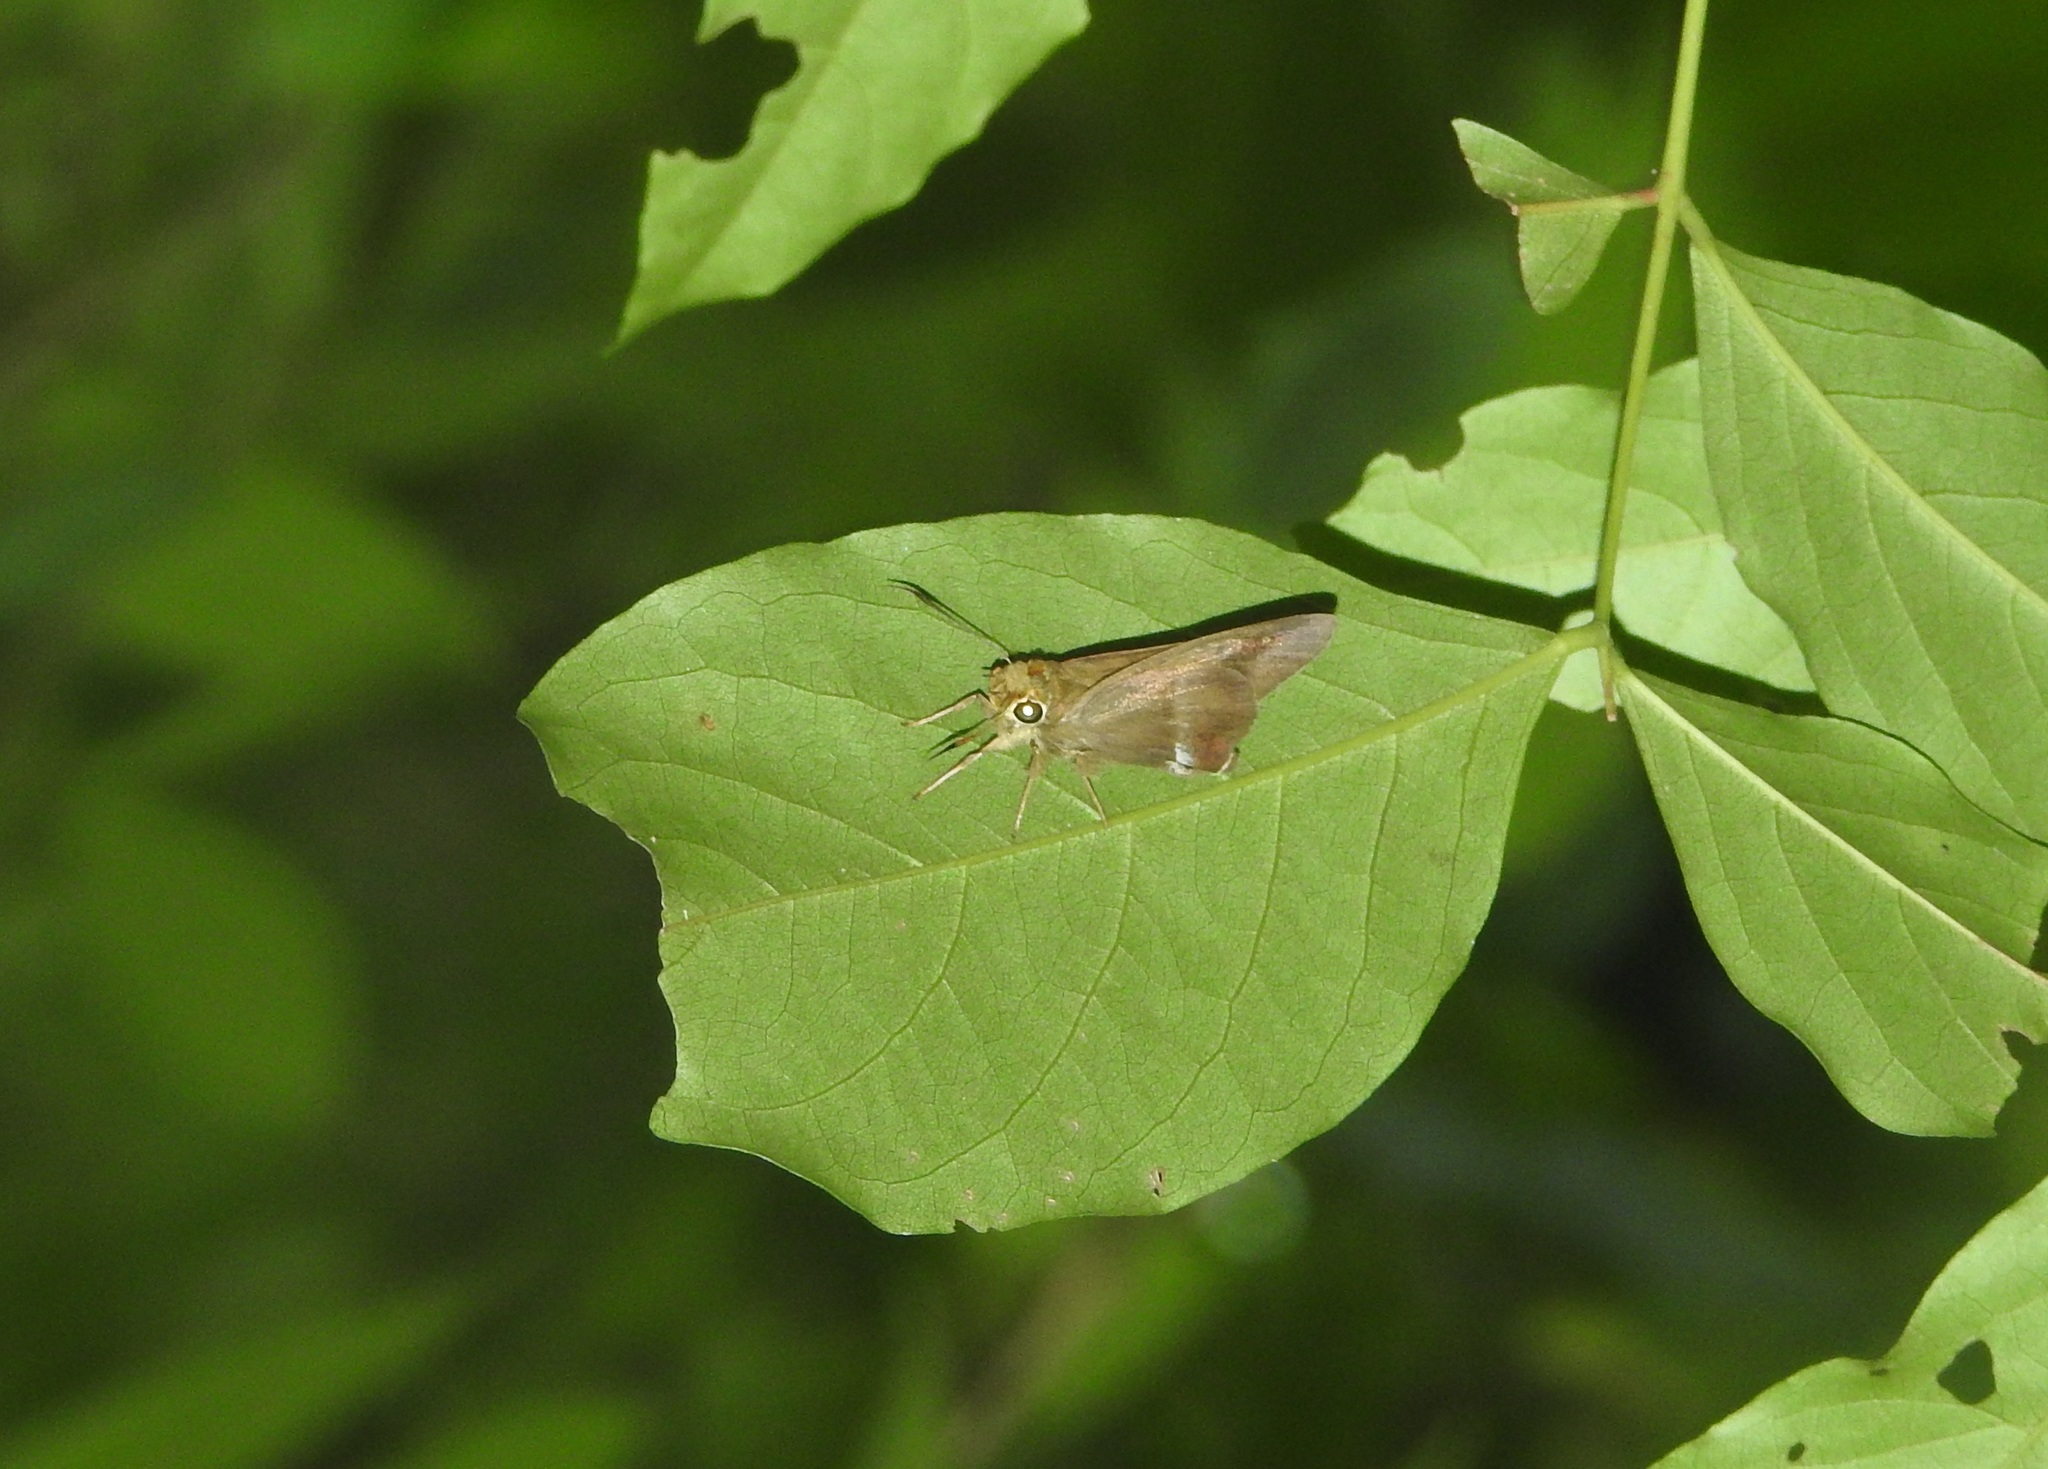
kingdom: Animalia
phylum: Arthropoda
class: Insecta
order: Lepidoptera
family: Hesperiidae
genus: Hasora
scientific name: Hasora chromus
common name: Common banded awl
